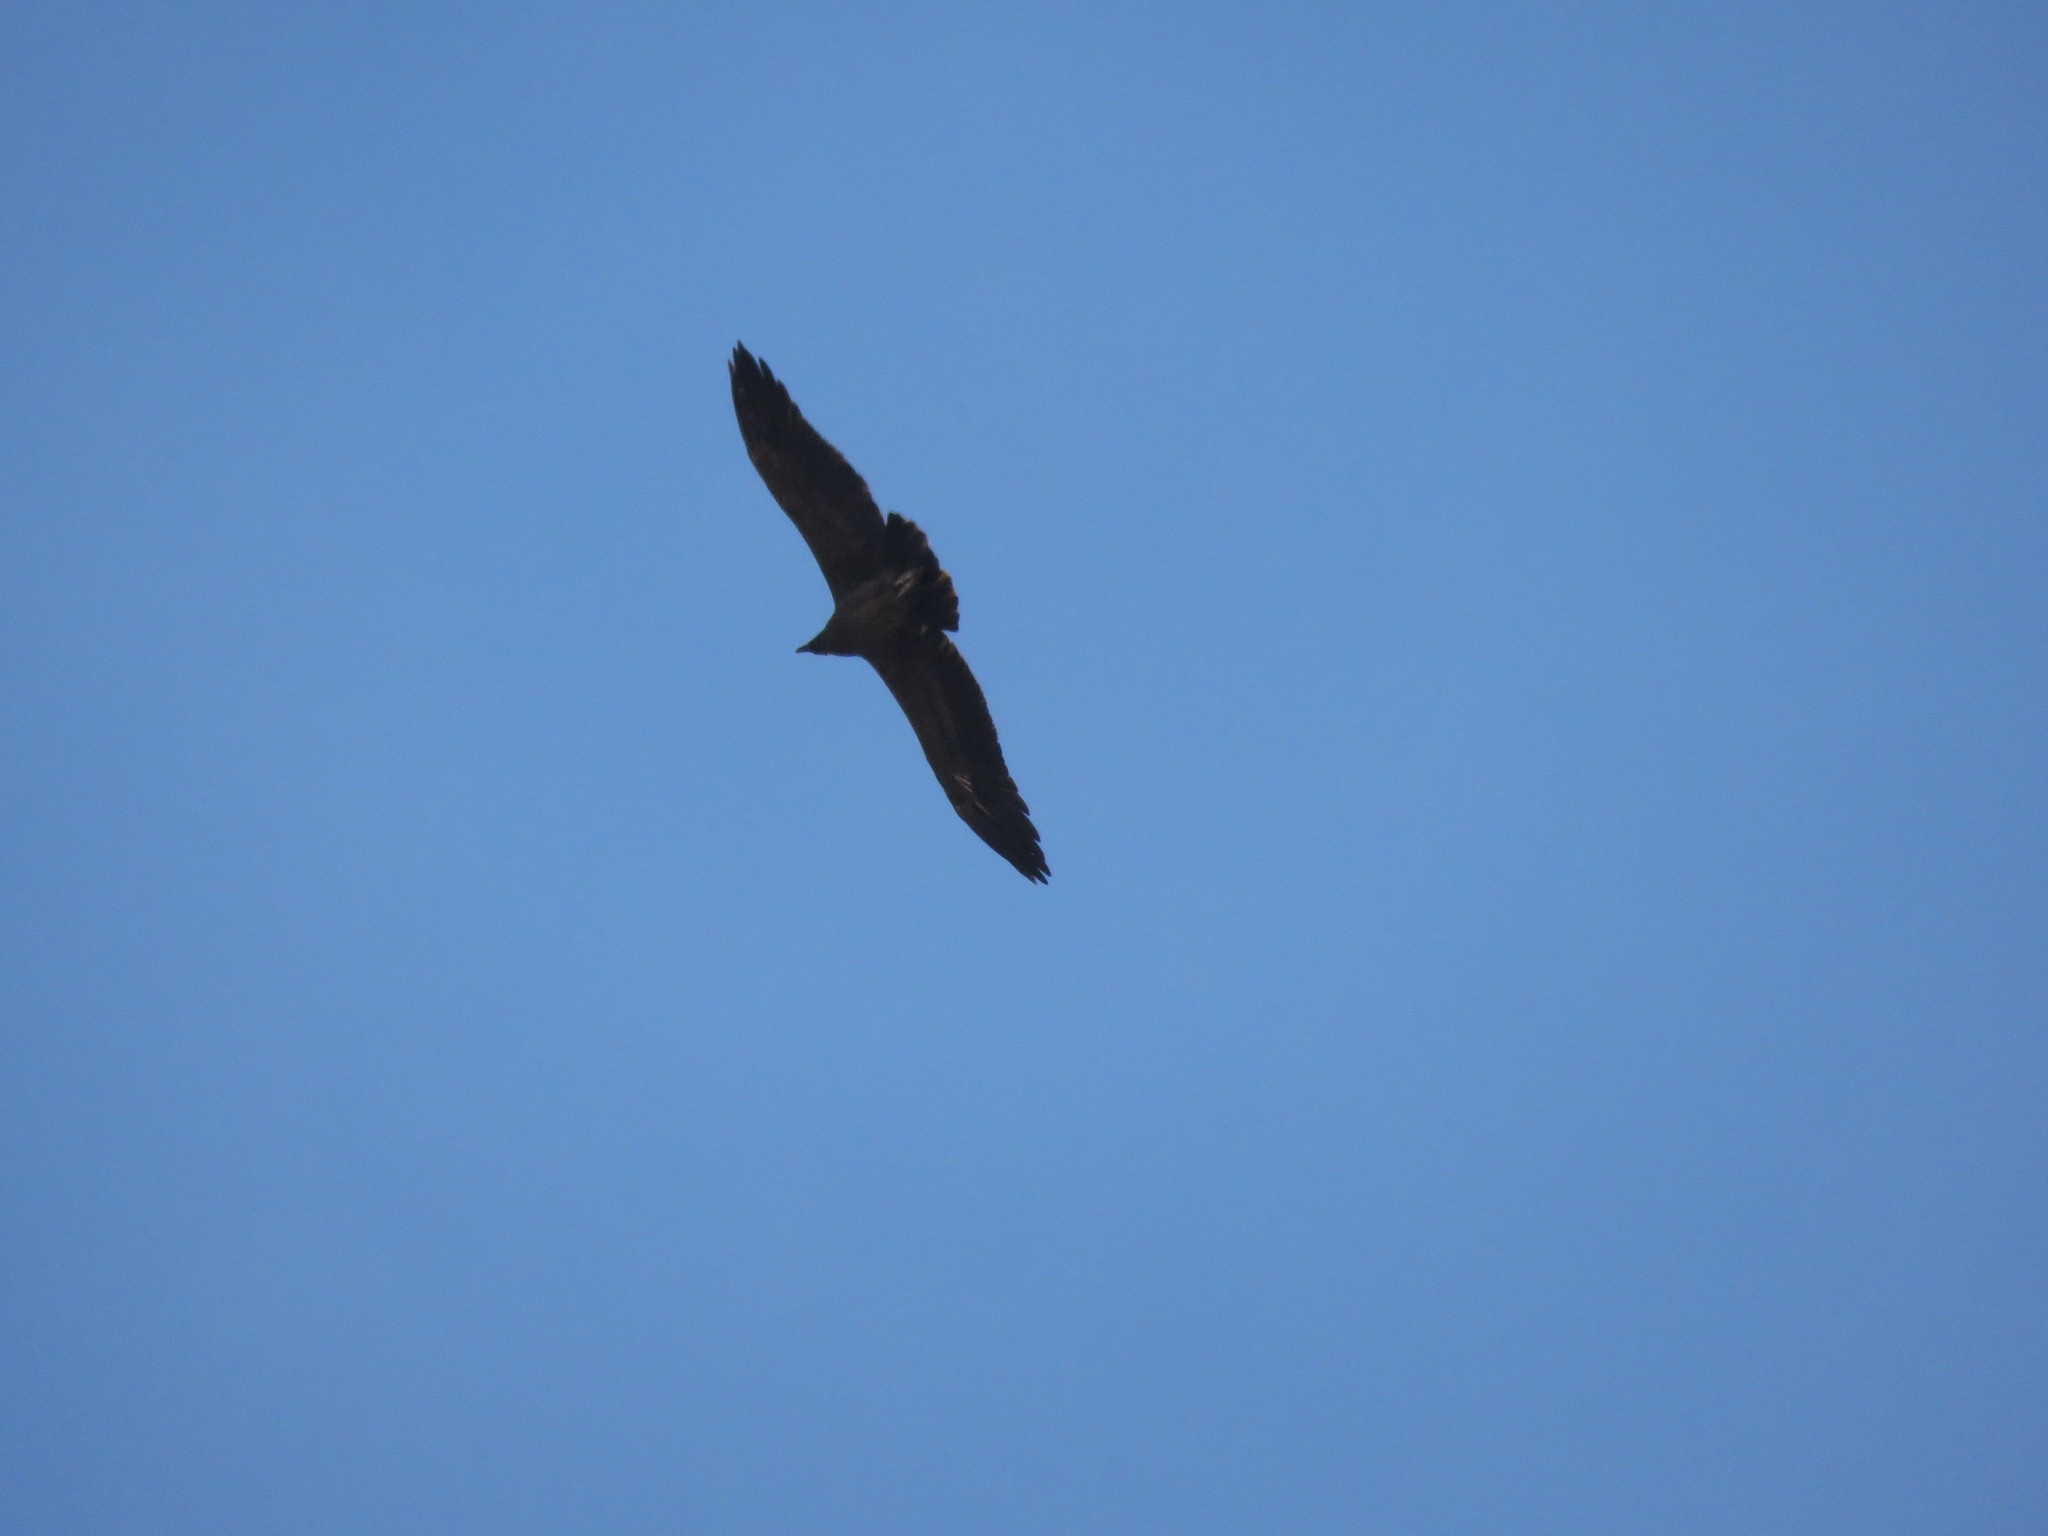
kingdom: Animalia
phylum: Chordata
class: Aves
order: Accipitriformes
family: Cathartidae
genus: Vultur
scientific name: Vultur gryphus
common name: Andean condor
